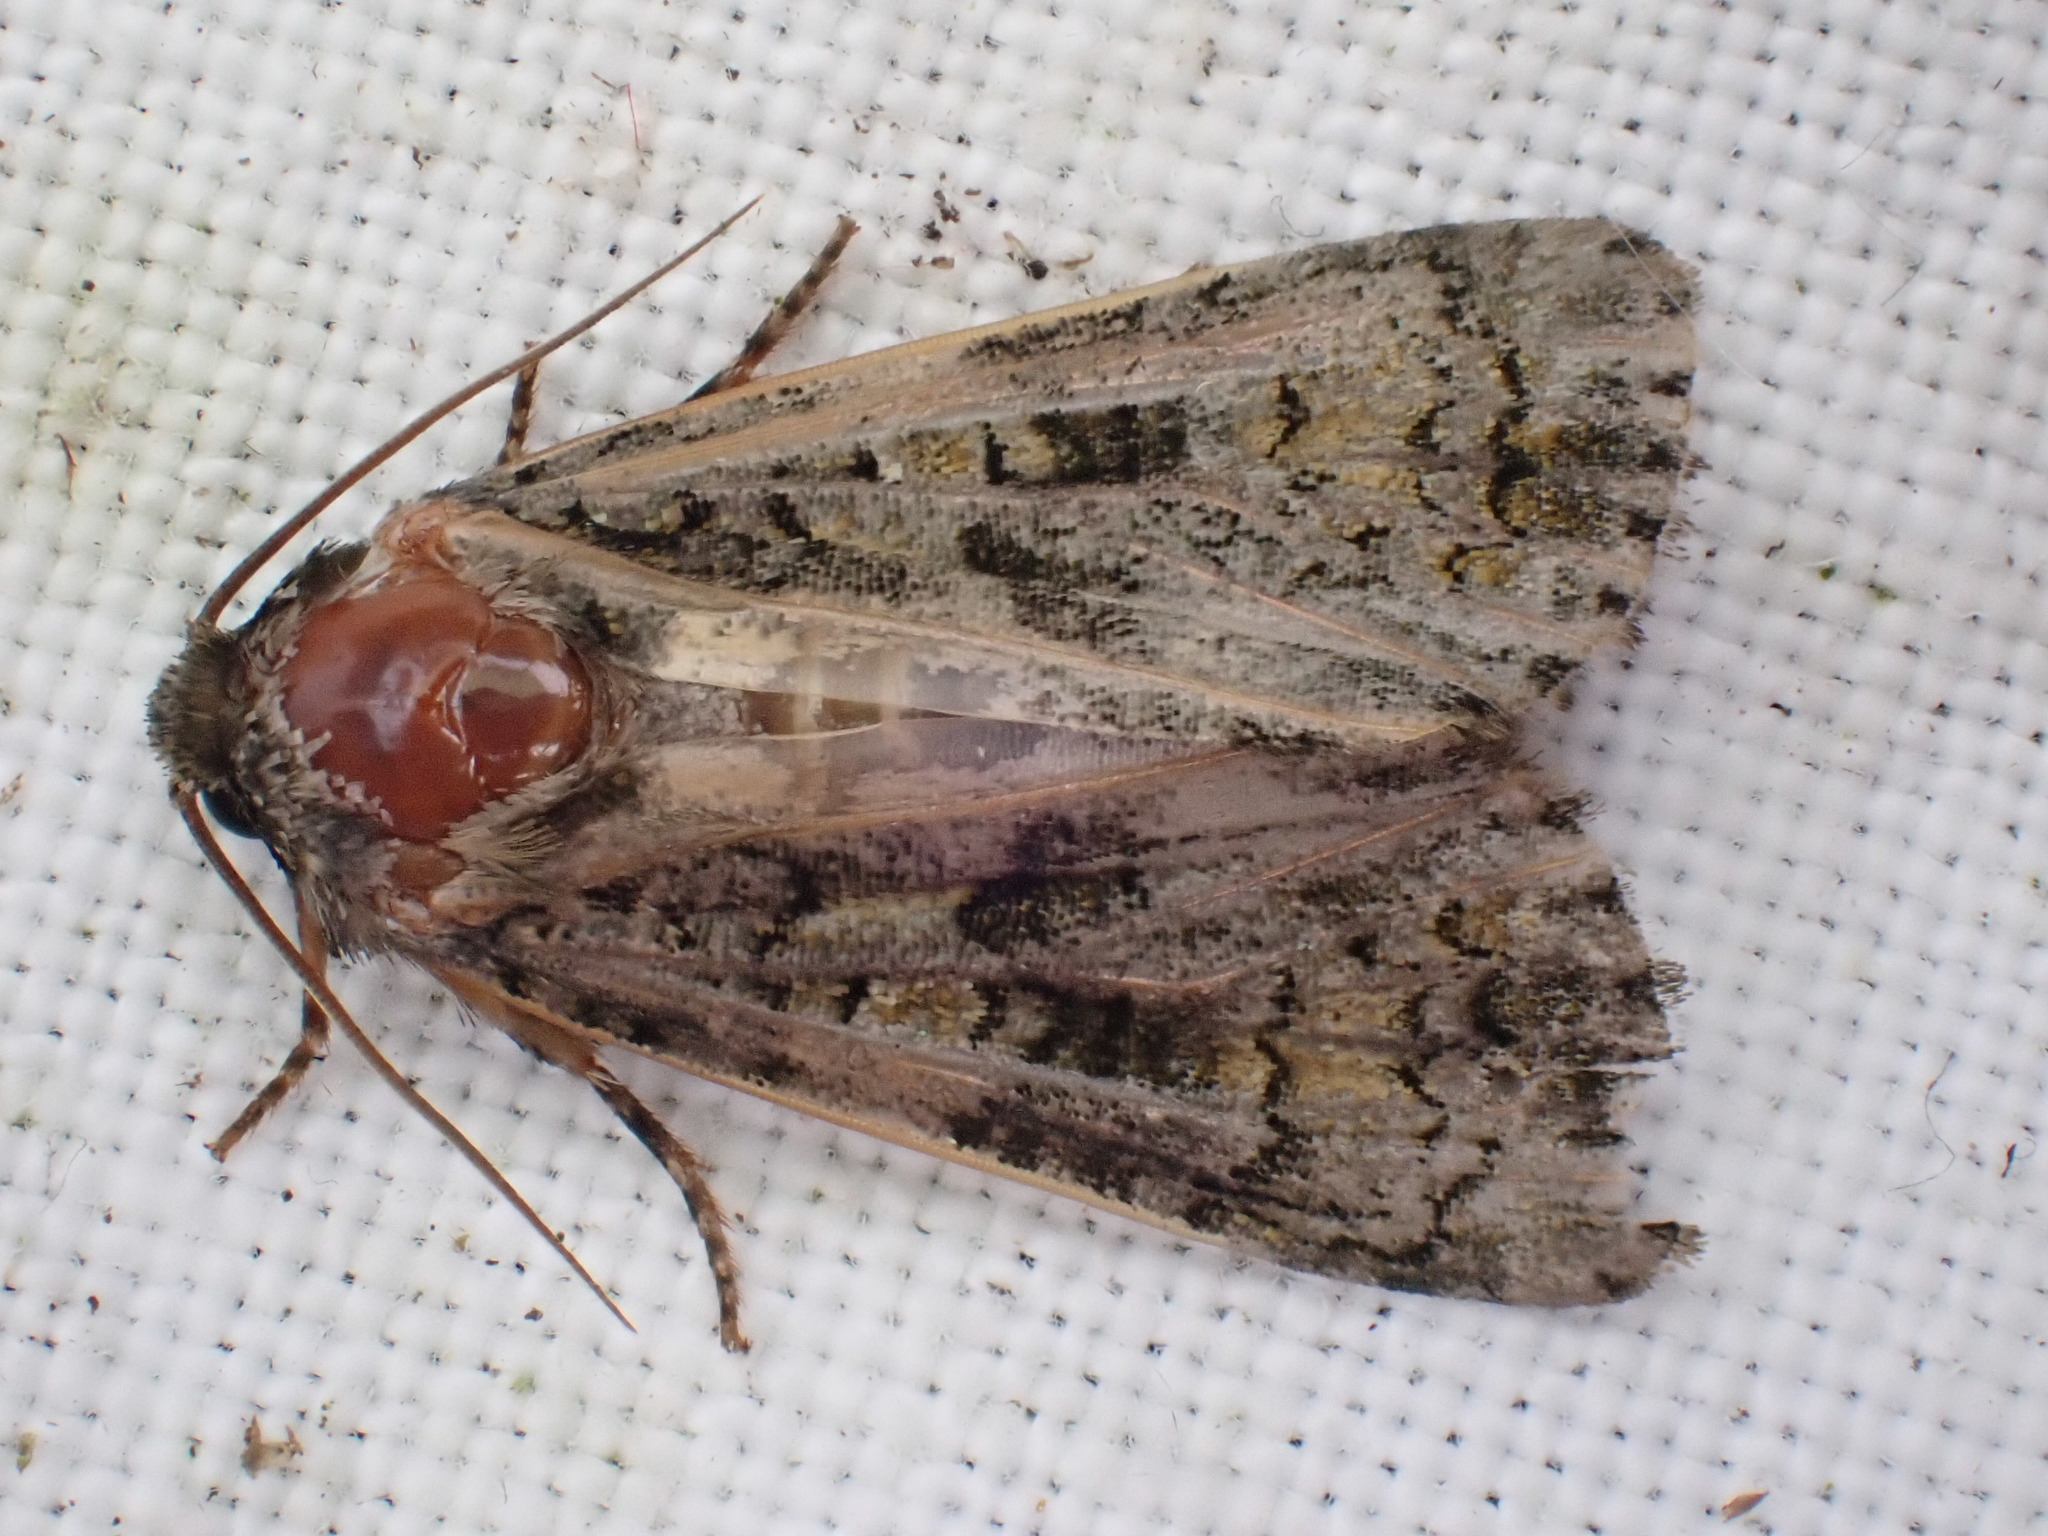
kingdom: Animalia
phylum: Arthropoda
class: Insecta
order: Lepidoptera
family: Noctuidae
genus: Craniophora
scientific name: Craniophora ligustri
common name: Coronet
